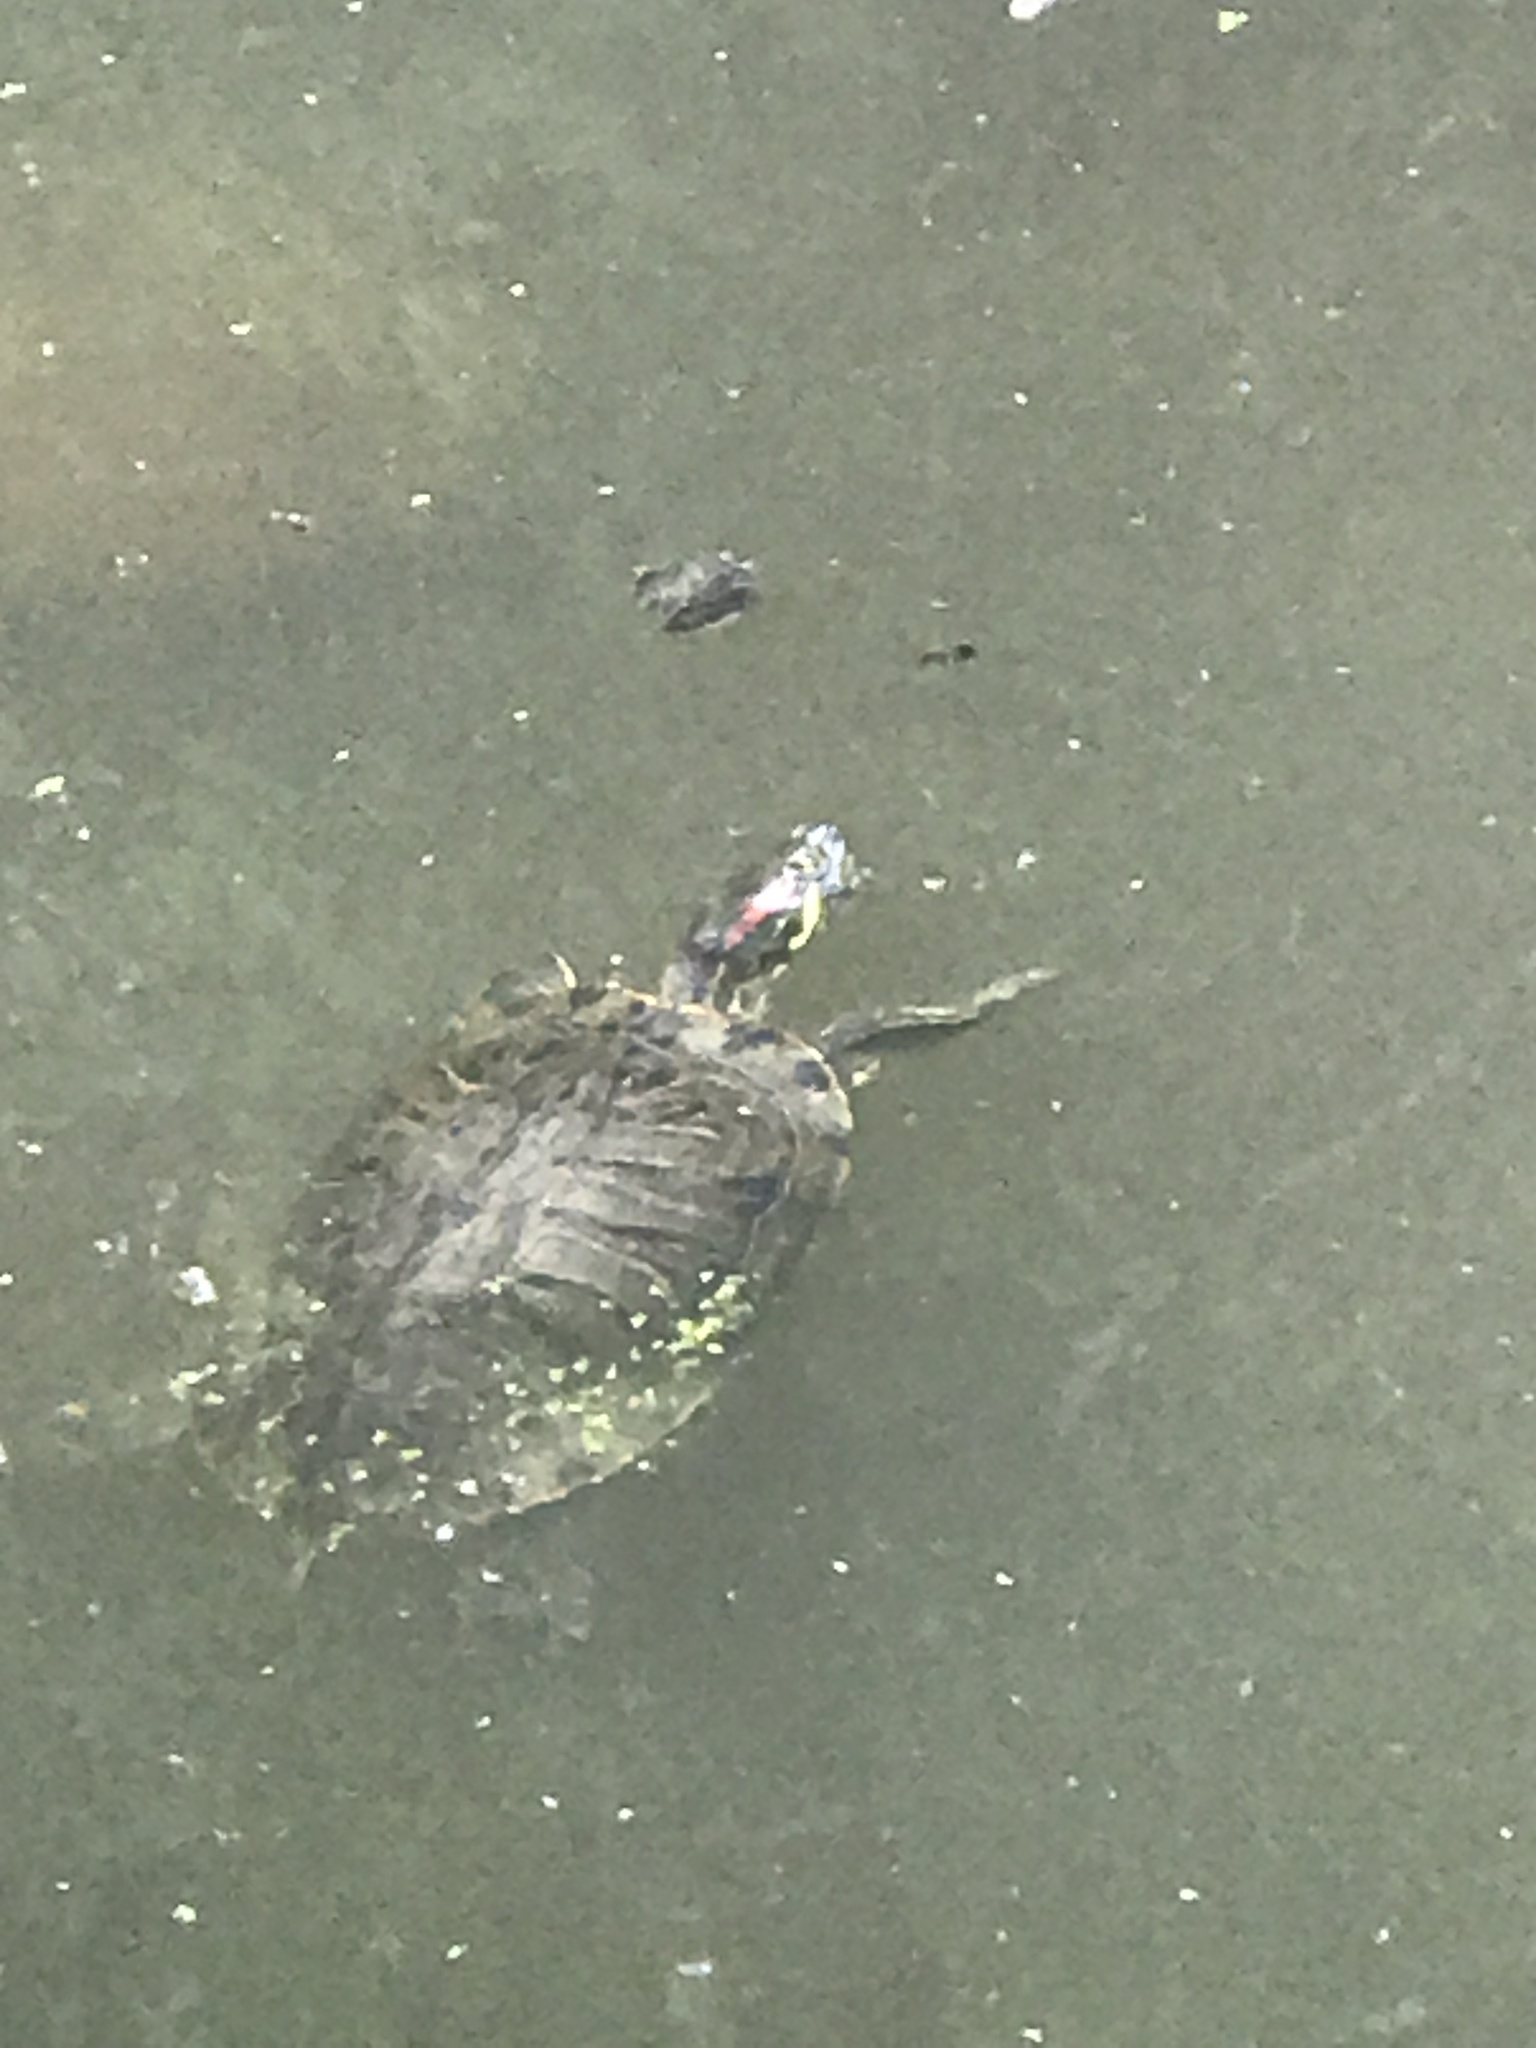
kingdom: Animalia
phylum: Chordata
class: Testudines
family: Emydidae
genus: Trachemys
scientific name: Trachemys scripta
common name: Slider
